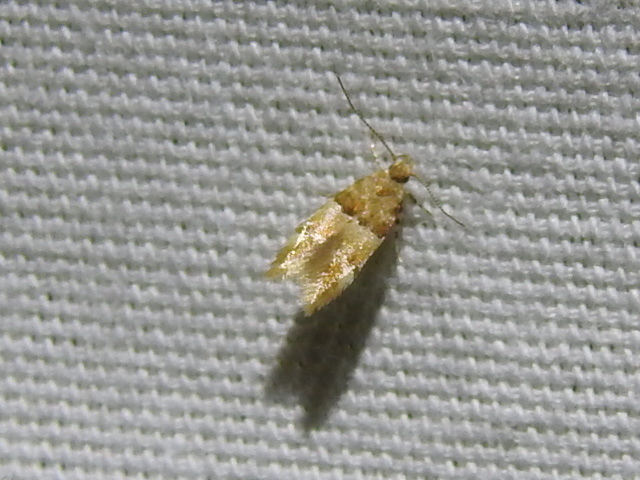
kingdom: Animalia
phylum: Arthropoda
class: Insecta
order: Lepidoptera
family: Gelechiidae
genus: Theisoa
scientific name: Theisoa constrictella
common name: Constricted twirler
